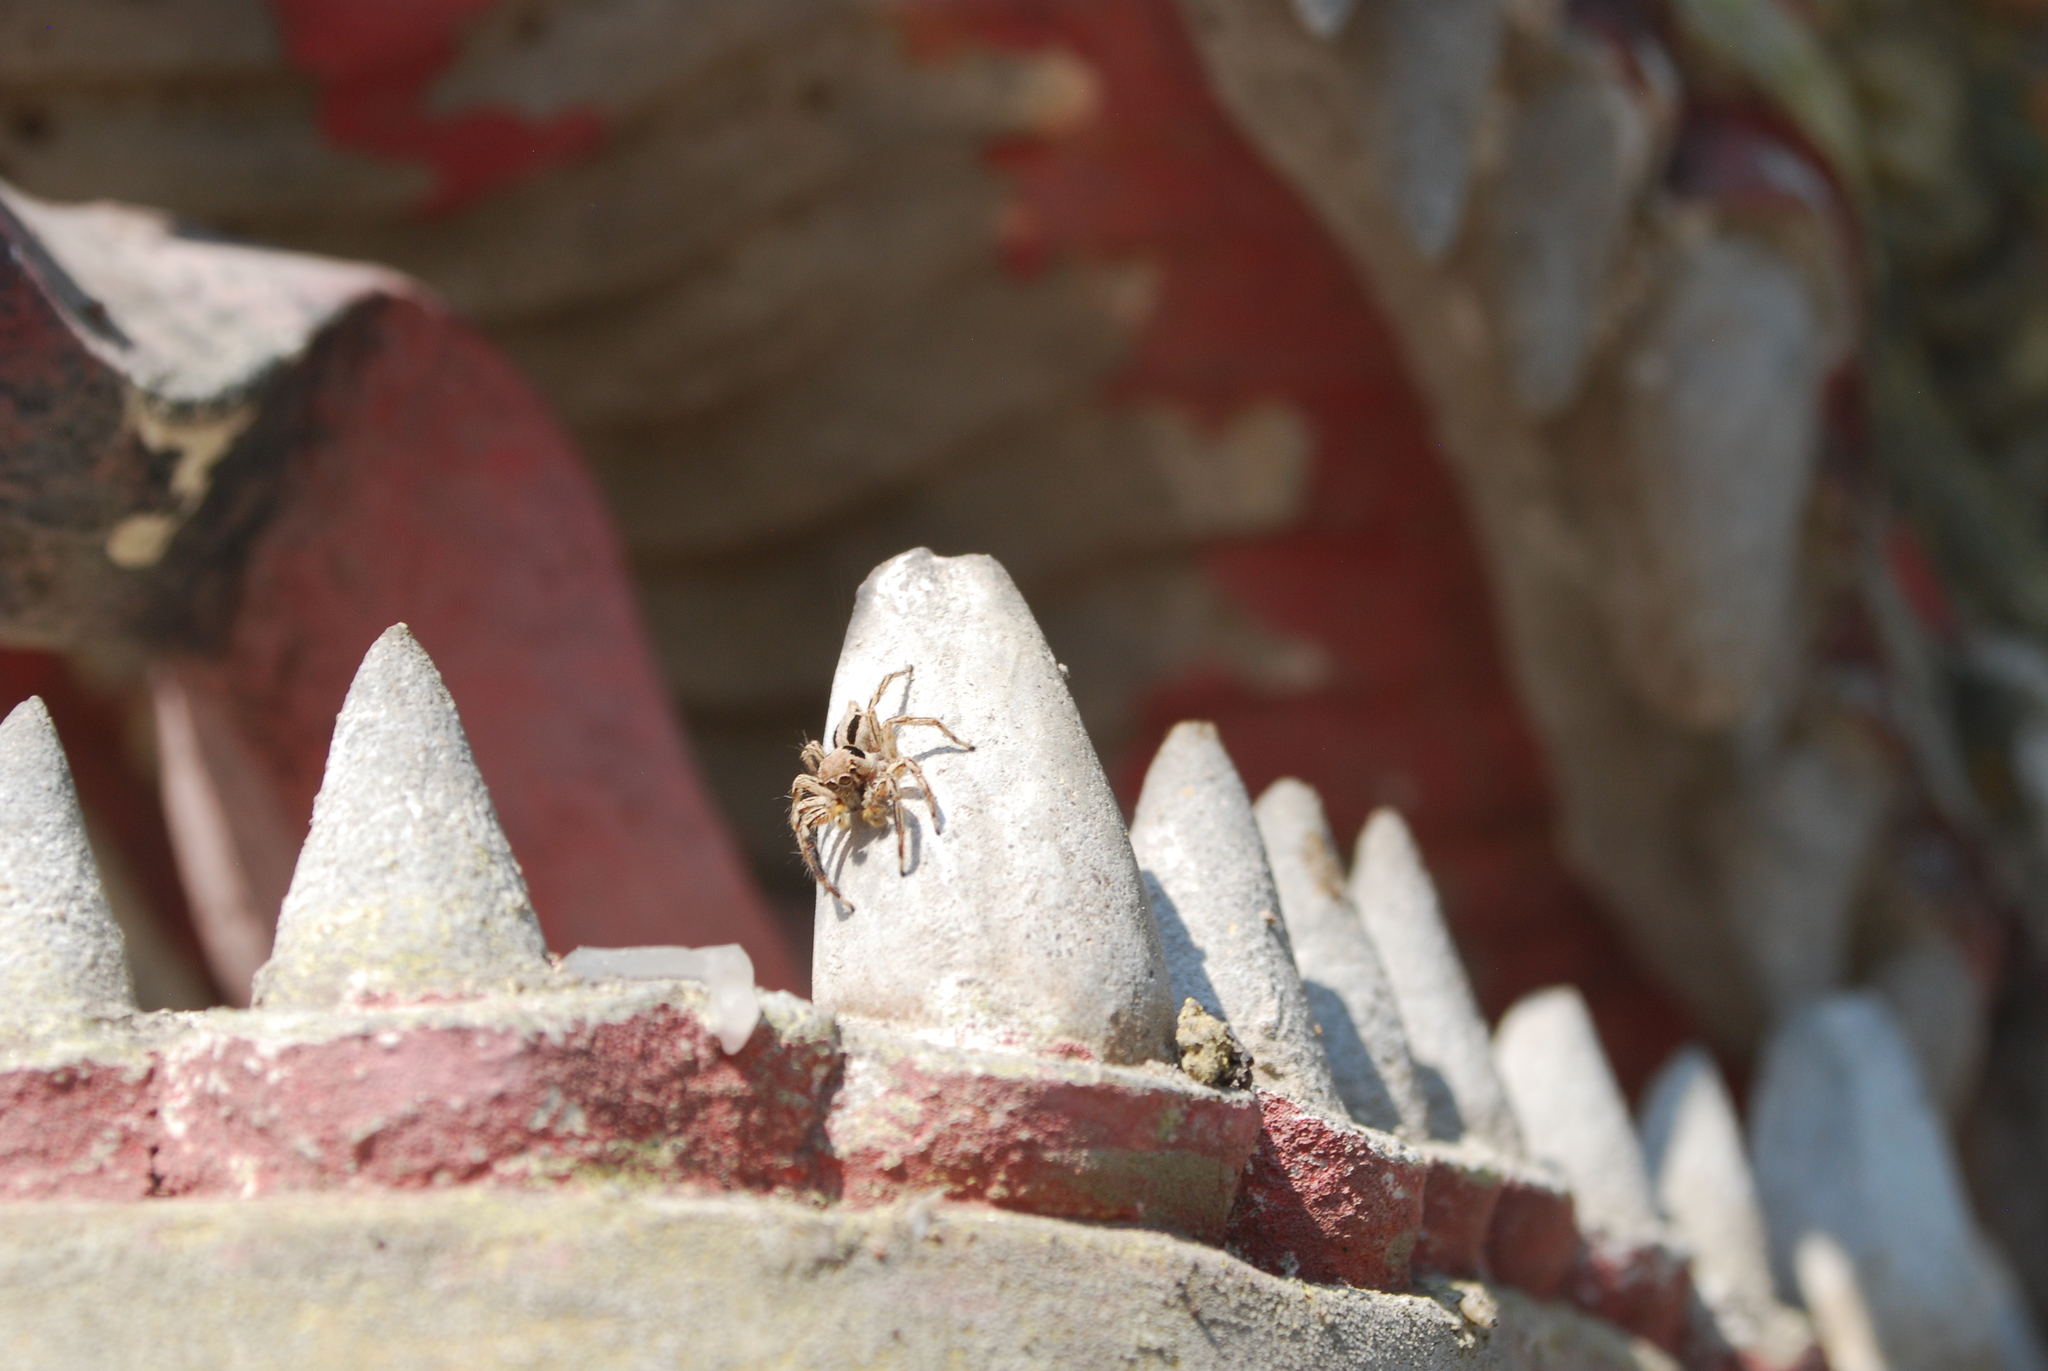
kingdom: Animalia
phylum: Arthropoda
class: Arachnida
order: Araneae
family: Salticidae
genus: Plexippus
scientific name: Plexippus petersi
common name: Jumping spider
